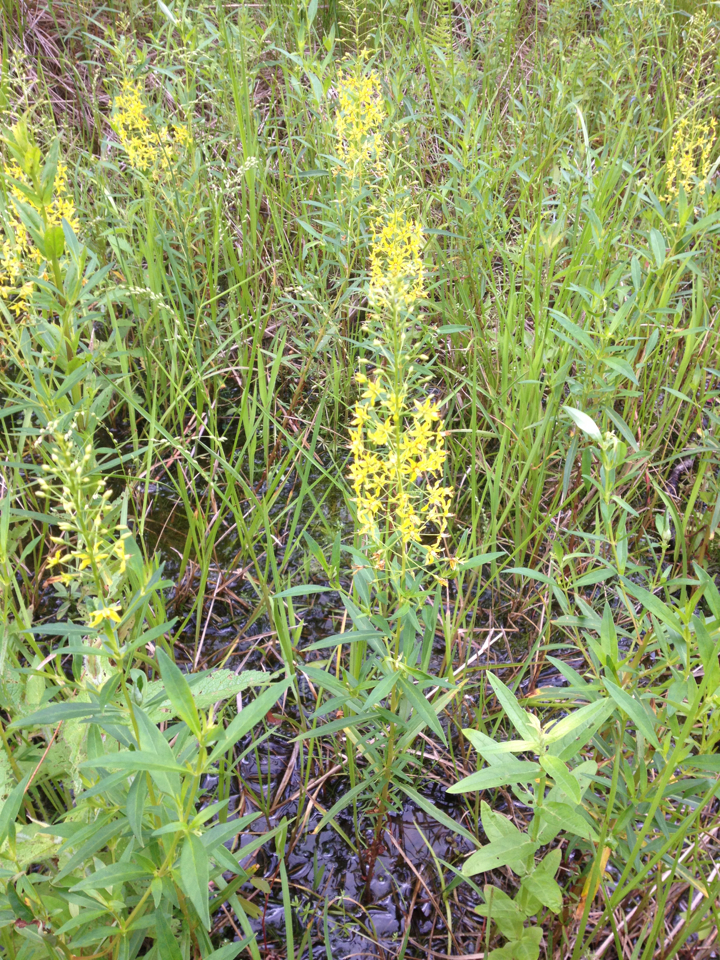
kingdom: Plantae
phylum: Tracheophyta
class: Magnoliopsida
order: Ericales
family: Primulaceae
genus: Lysimachia
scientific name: Lysimachia terrestris
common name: Lake loosestrife
